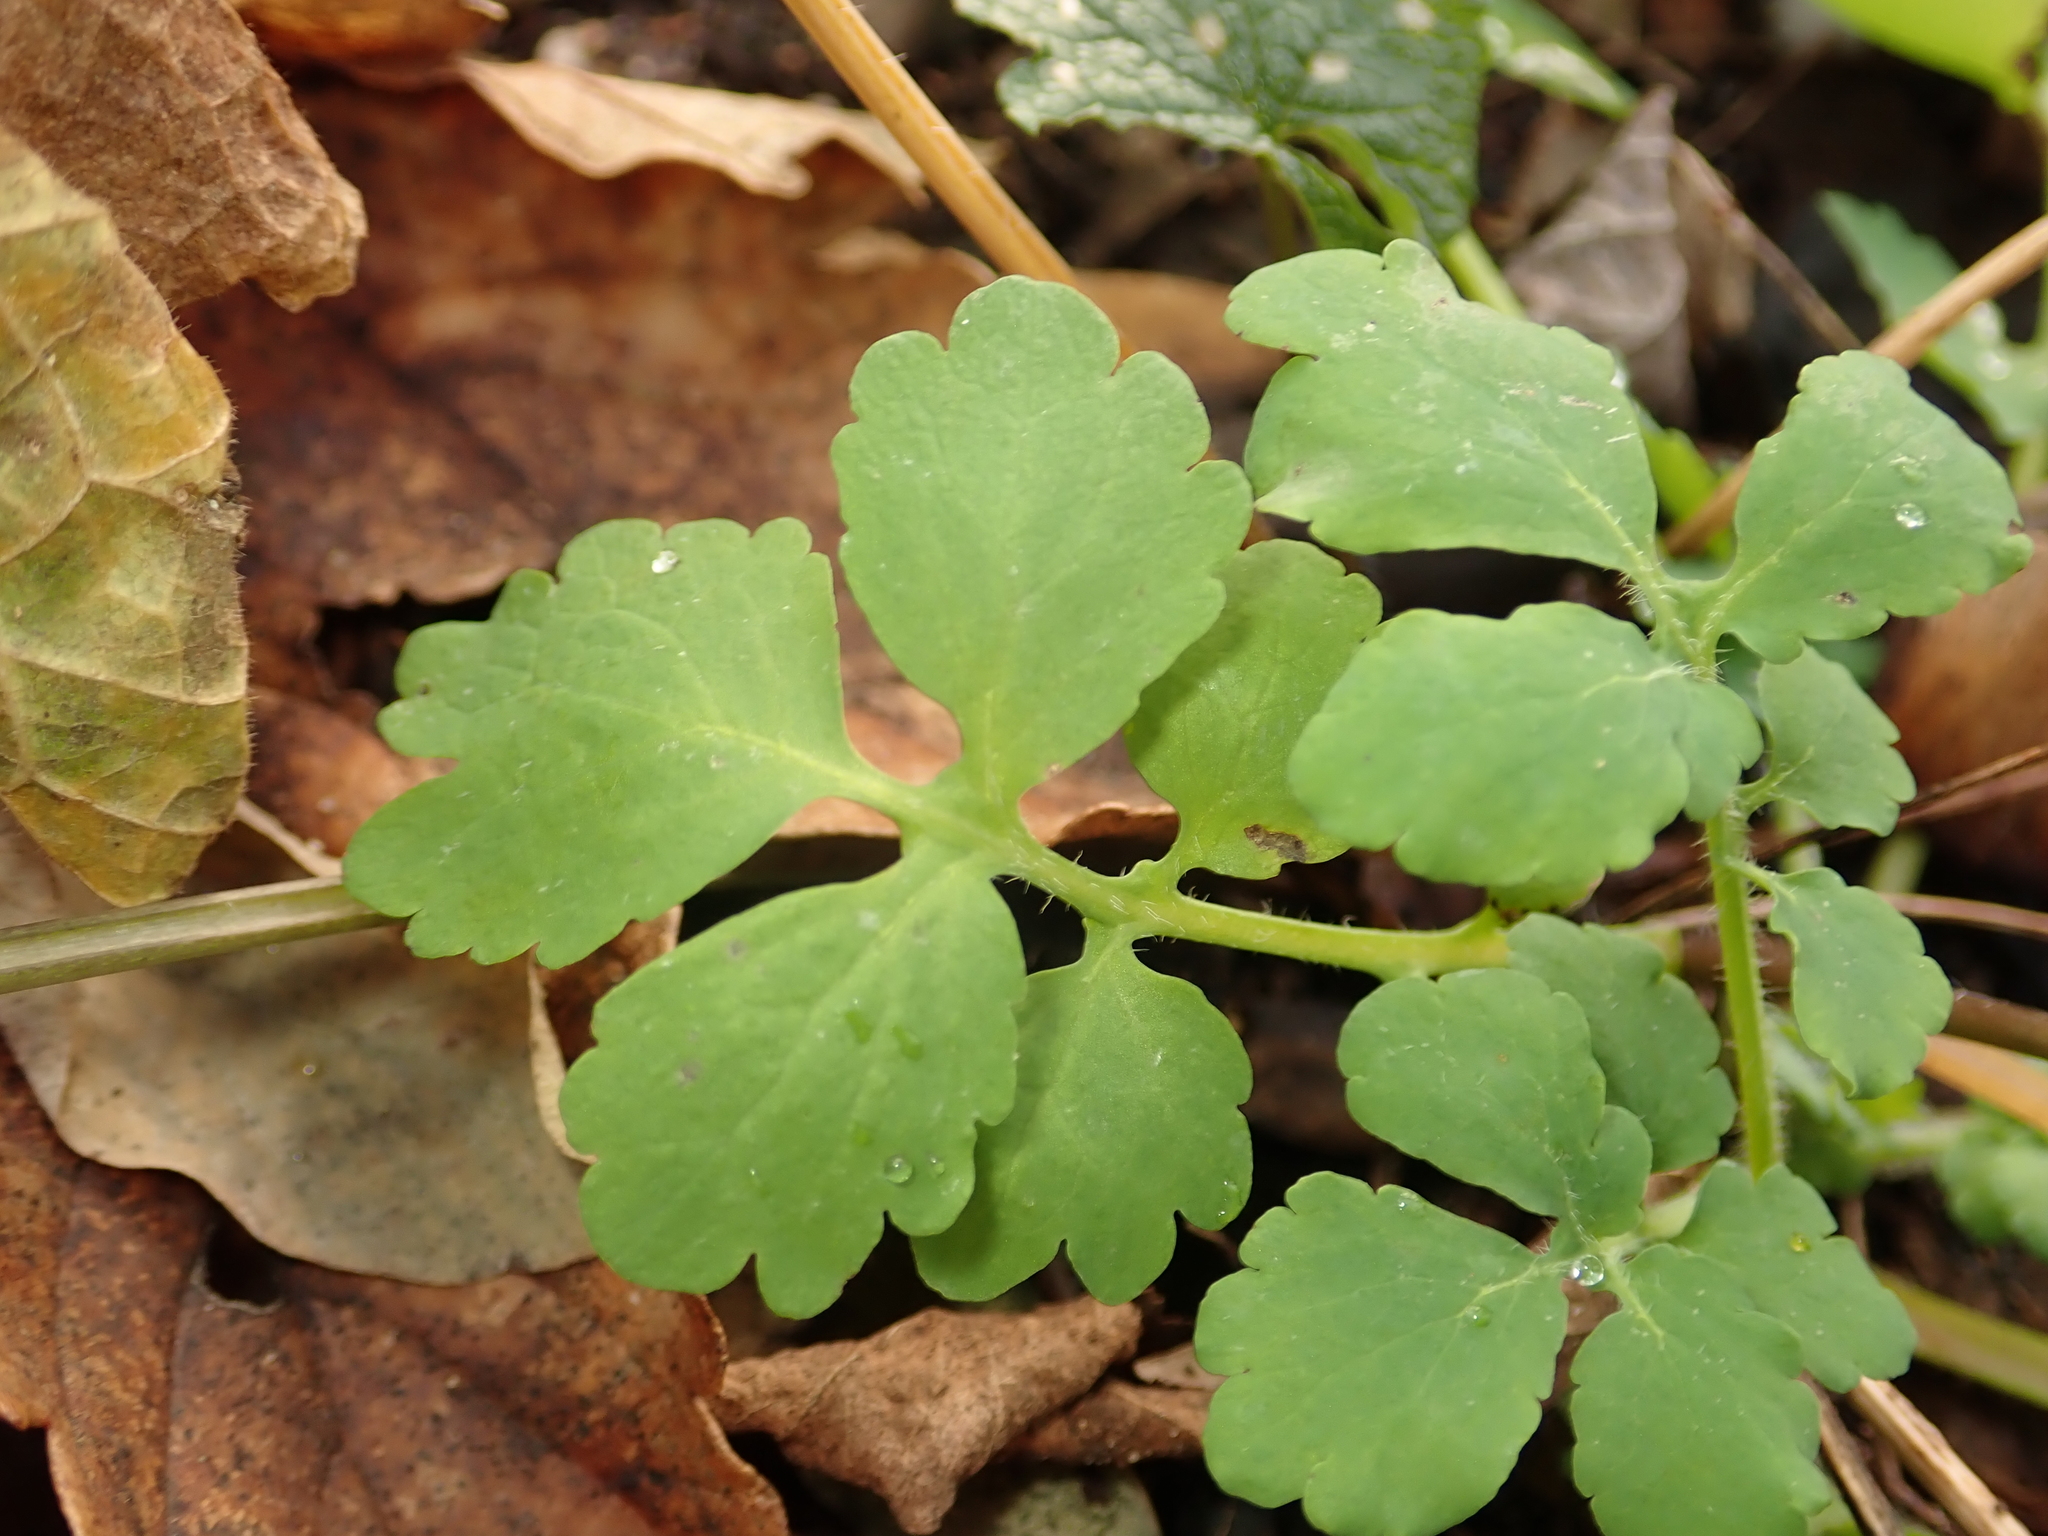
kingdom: Plantae
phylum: Tracheophyta
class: Magnoliopsida
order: Ranunculales
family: Papaveraceae
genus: Chelidonium
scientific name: Chelidonium majus
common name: Greater celandine
